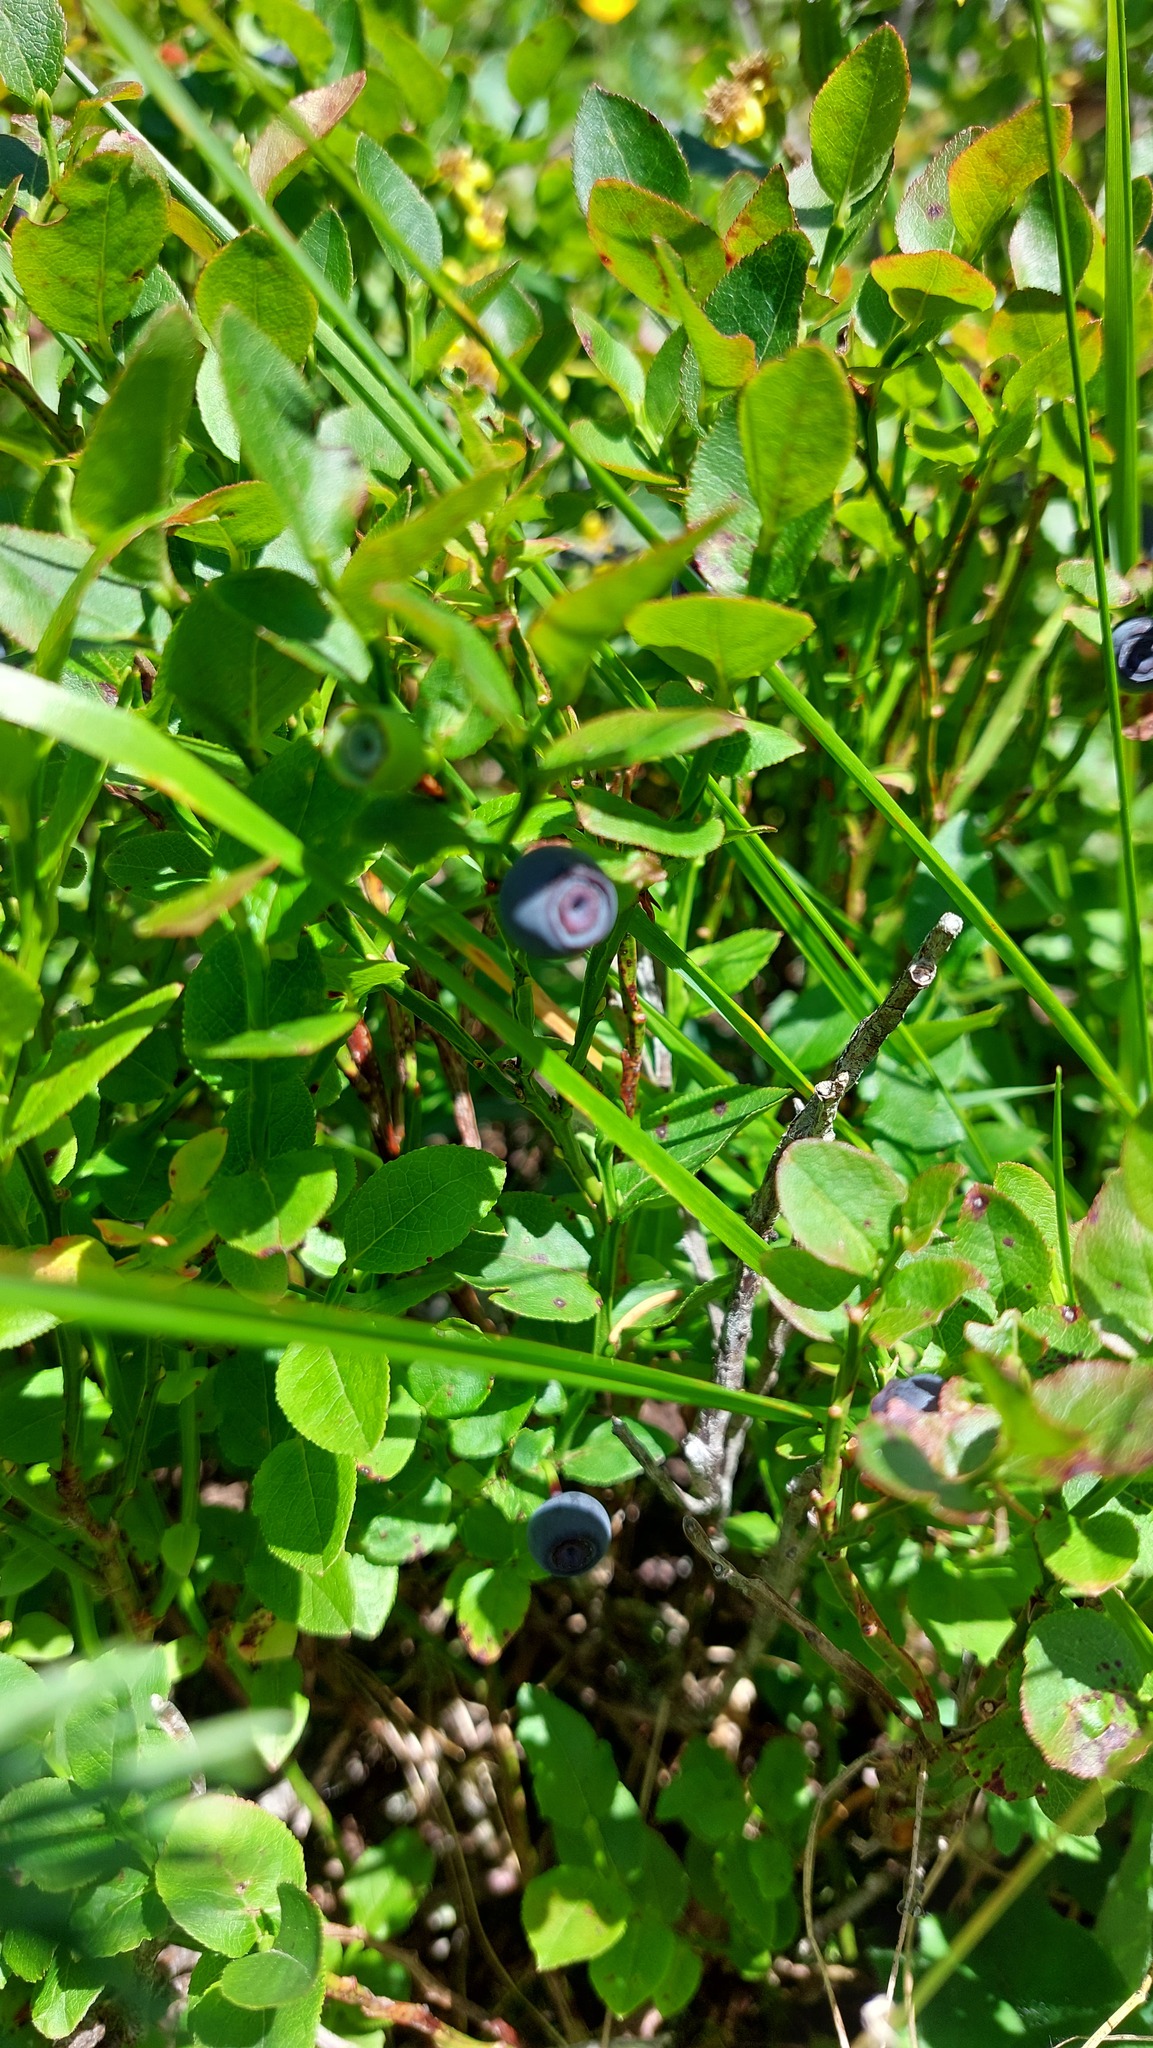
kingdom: Plantae
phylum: Tracheophyta
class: Magnoliopsida
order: Ericales
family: Ericaceae
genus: Vaccinium
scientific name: Vaccinium myrtillus
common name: Bilberry
